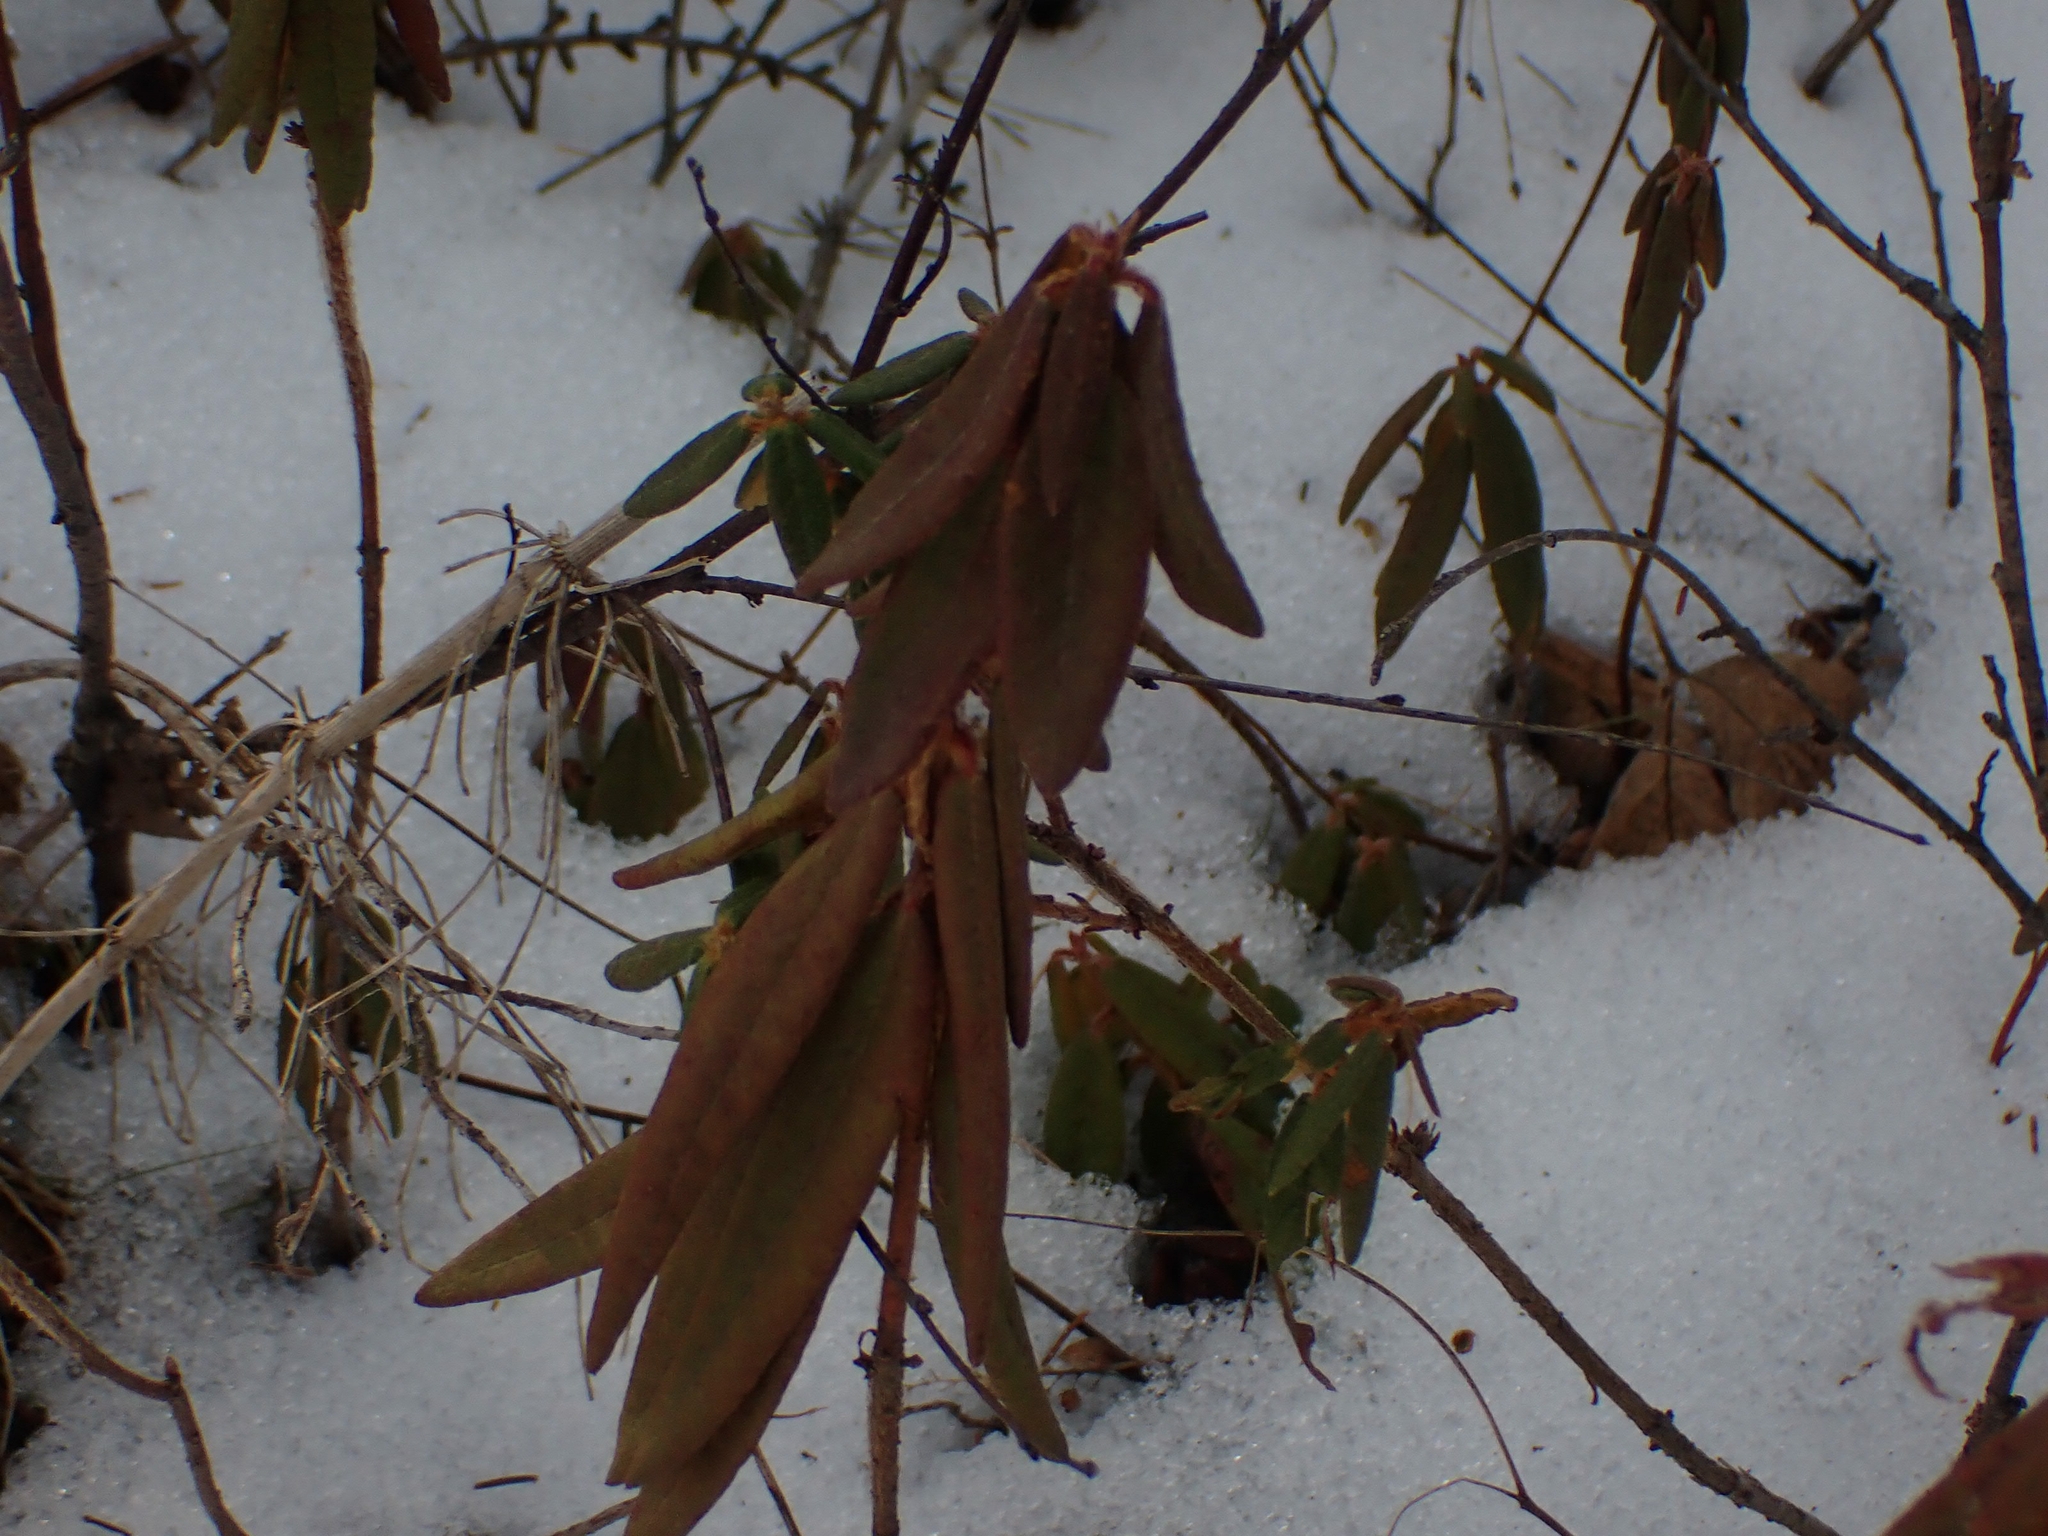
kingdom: Plantae
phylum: Tracheophyta
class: Magnoliopsida
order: Ericales
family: Ericaceae
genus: Rhododendron
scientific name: Rhododendron groenlandicum
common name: Bog labrador tea
